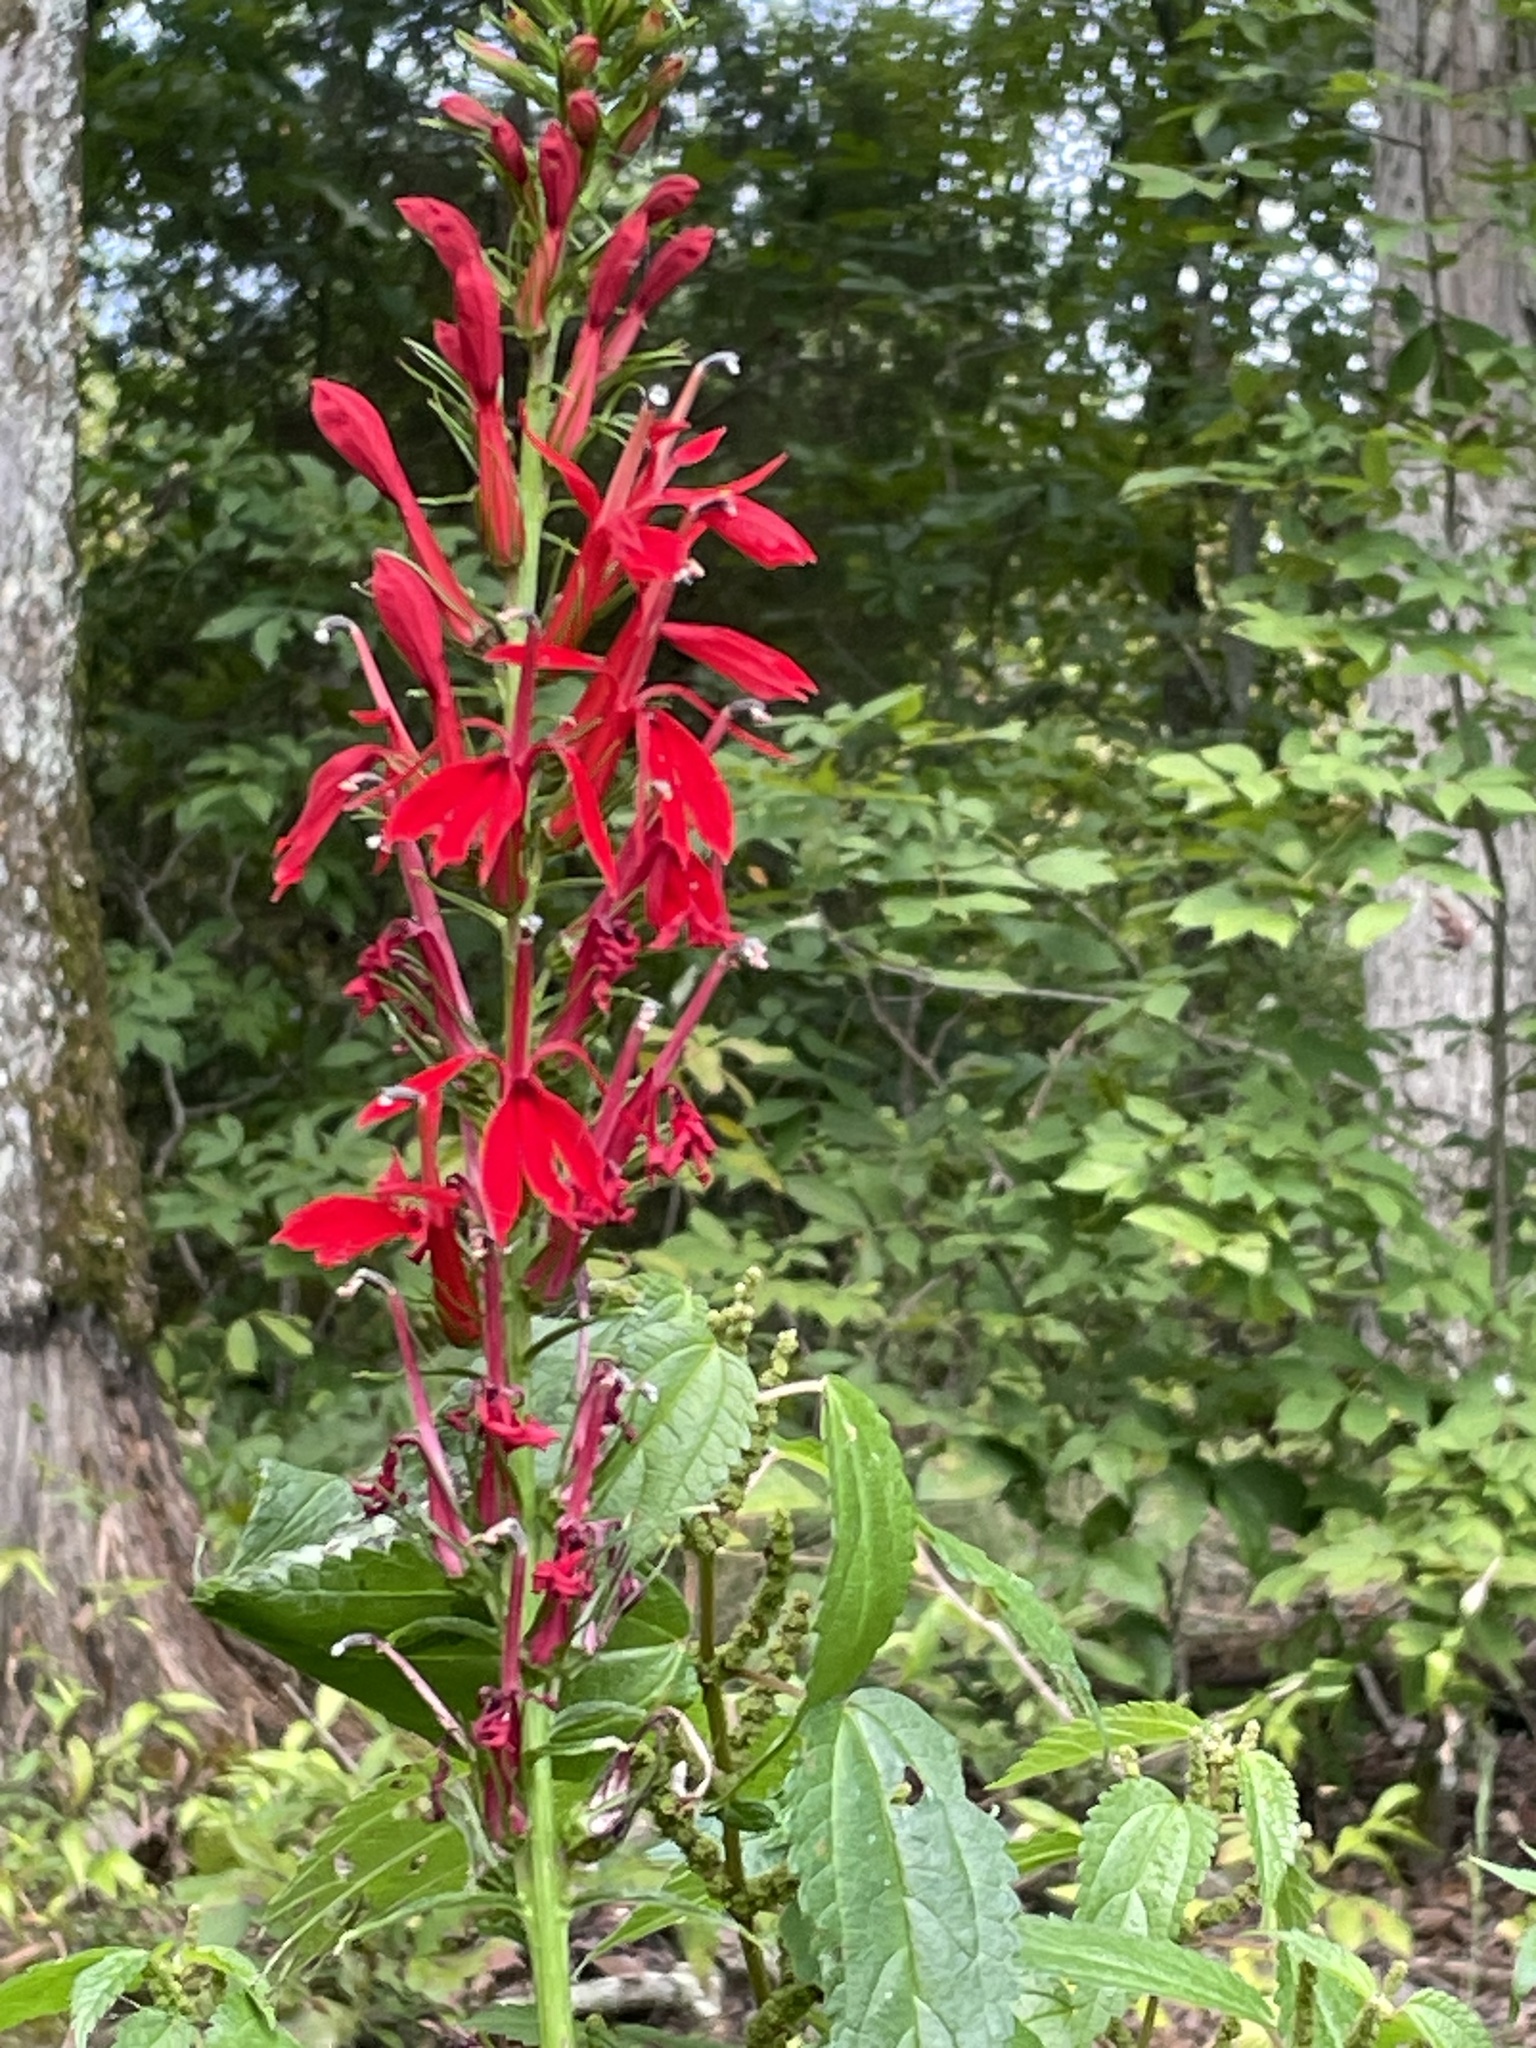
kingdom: Plantae
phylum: Tracheophyta
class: Magnoliopsida
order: Asterales
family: Campanulaceae
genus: Lobelia
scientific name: Lobelia cardinalis
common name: Cardinal flower
